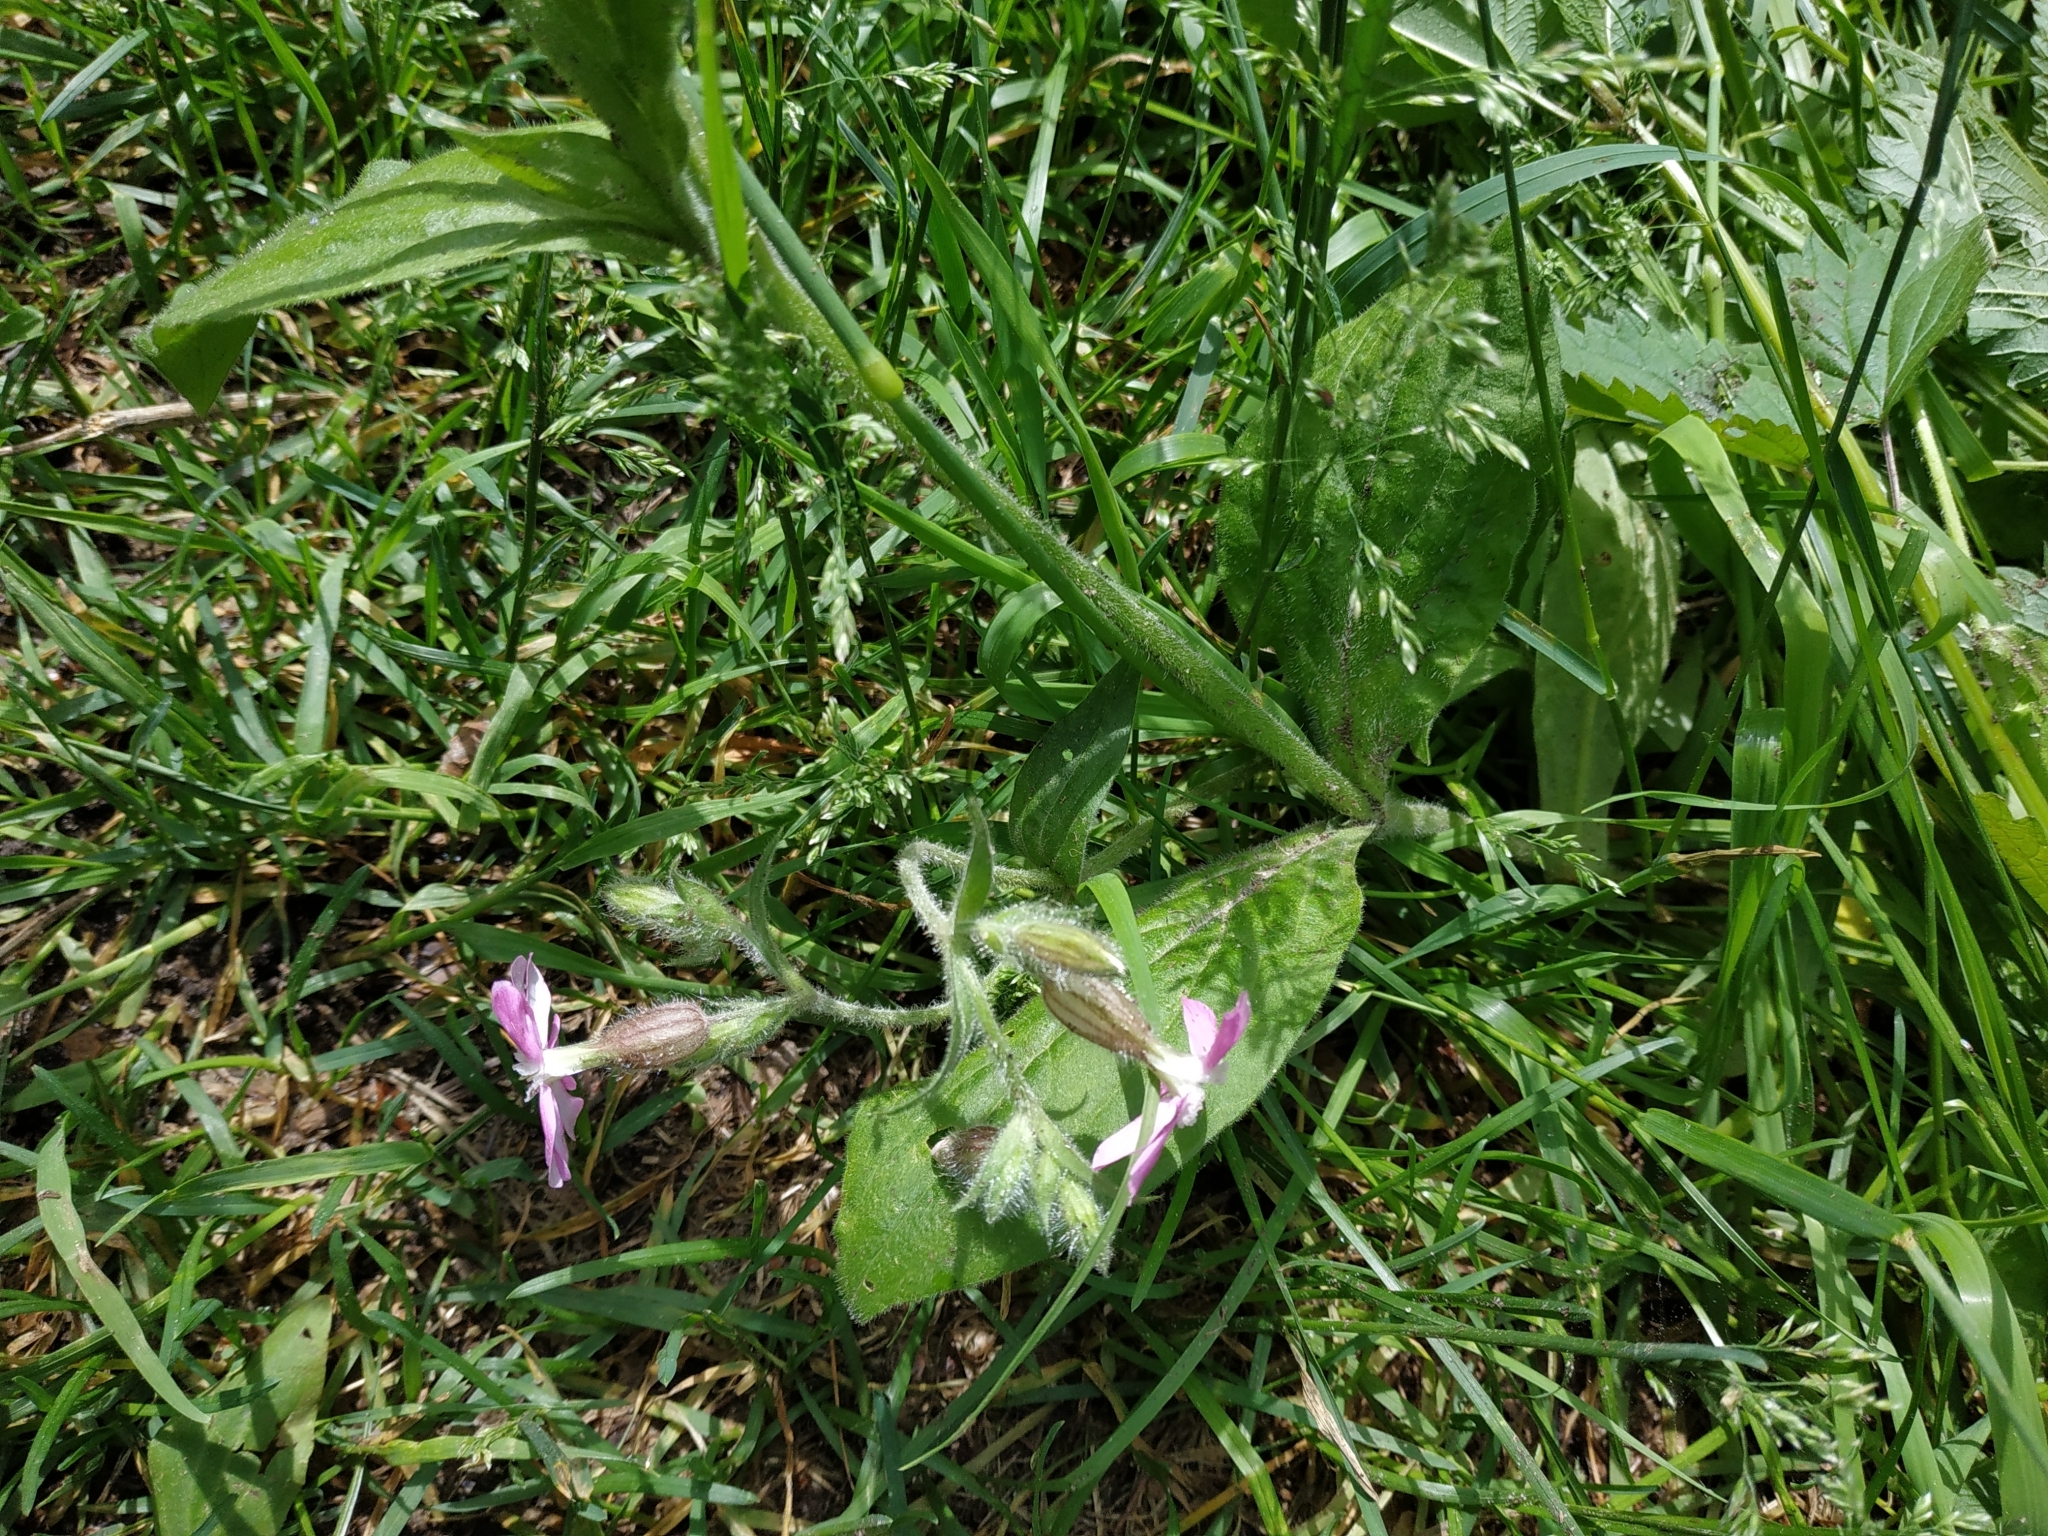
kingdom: Plantae
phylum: Tracheophyta
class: Magnoliopsida
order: Caryophyllales
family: Caryophyllaceae
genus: Silene
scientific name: Silene dioica
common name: Red campion
